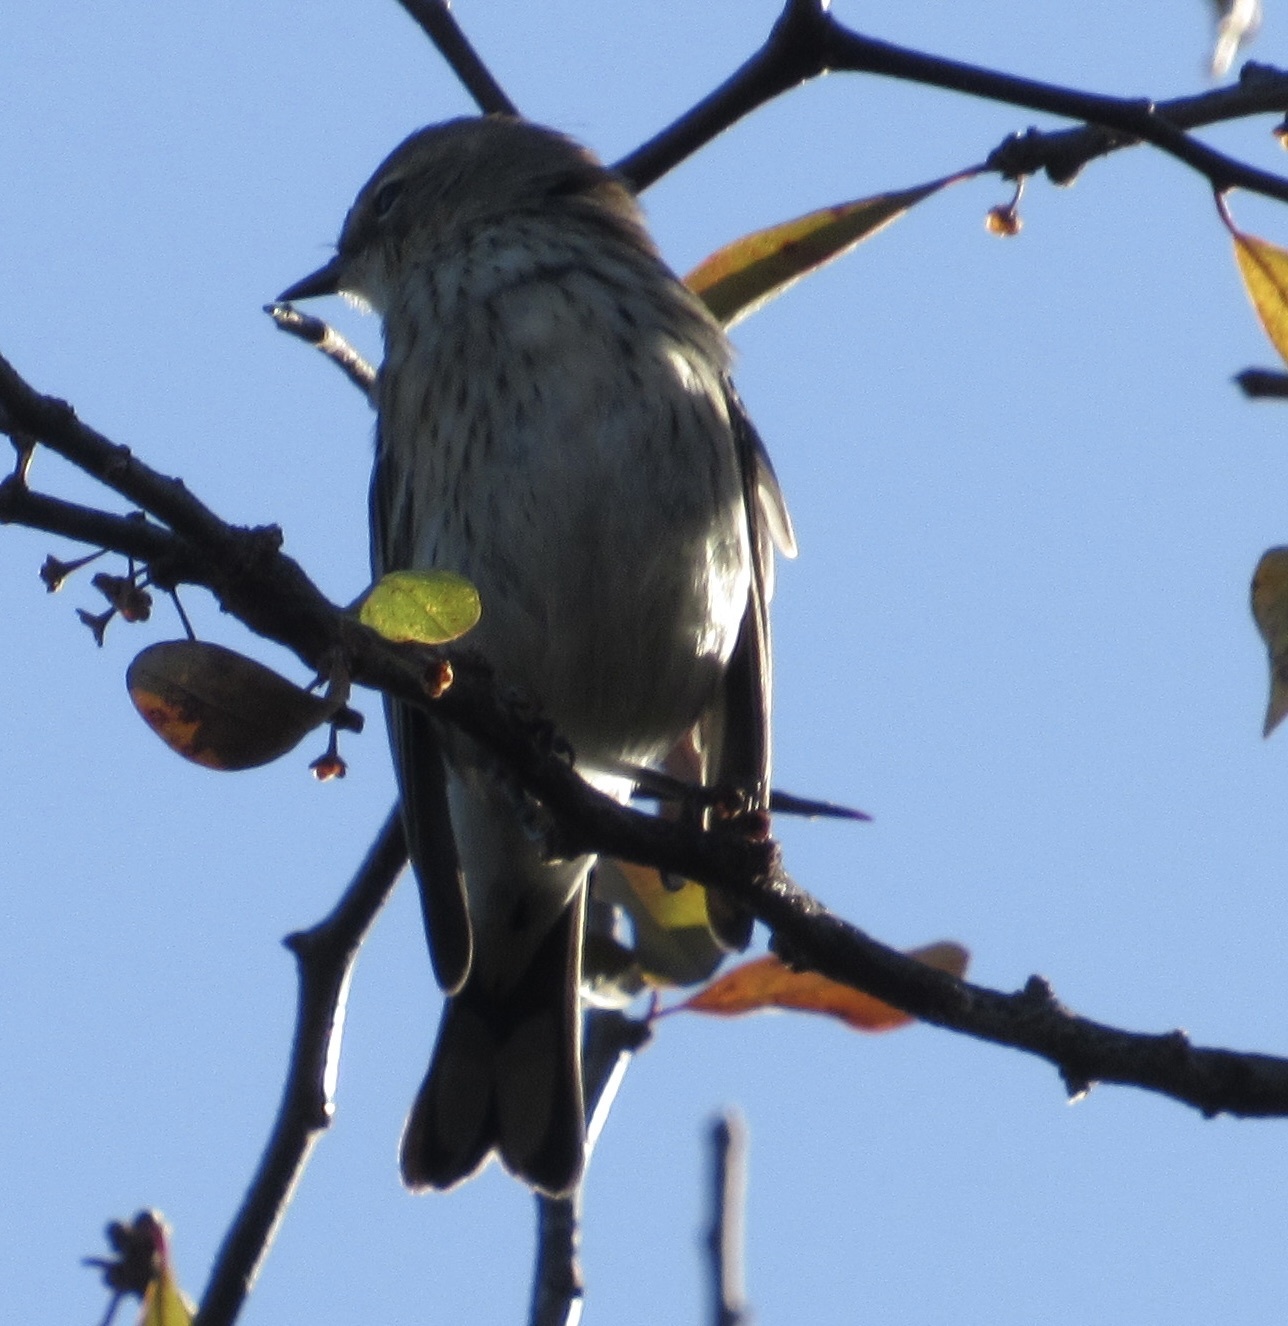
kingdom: Animalia
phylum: Chordata
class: Aves
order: Passeriformes
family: Parulidae
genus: Setophaga
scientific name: Setophaga coronata
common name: Myrtle warbler
